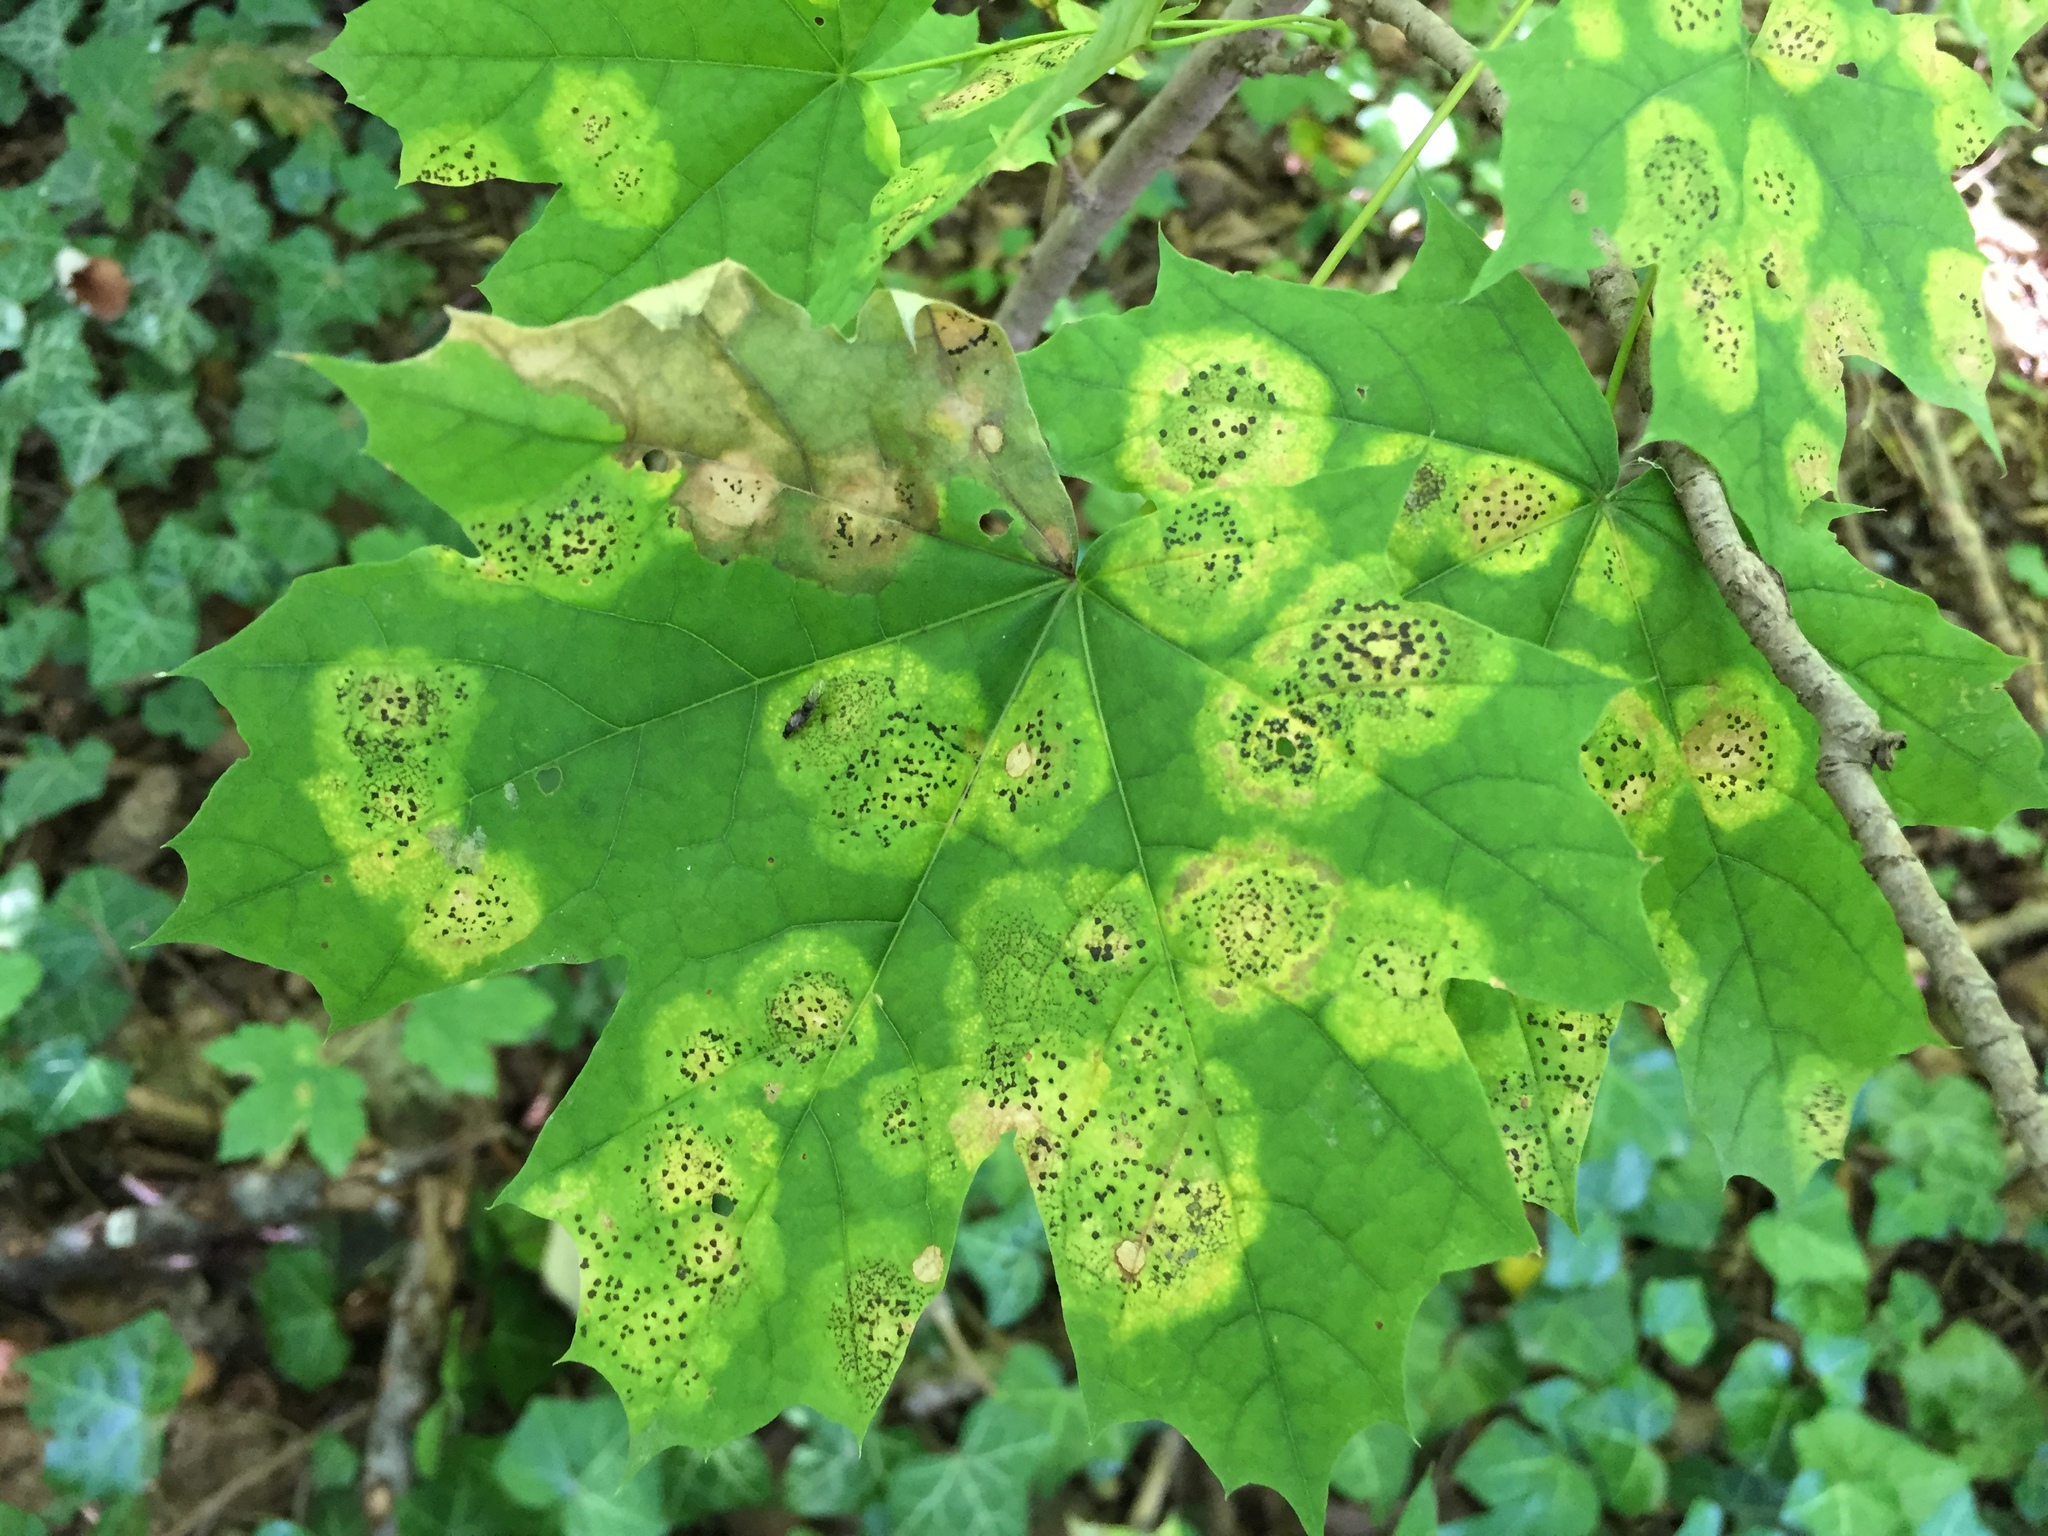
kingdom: Plantae
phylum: Tracheophyta
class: Magnoliopsida
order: Sapindales
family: Sapindaceae
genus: Acer
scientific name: Acer platanoides
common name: Norway maple
